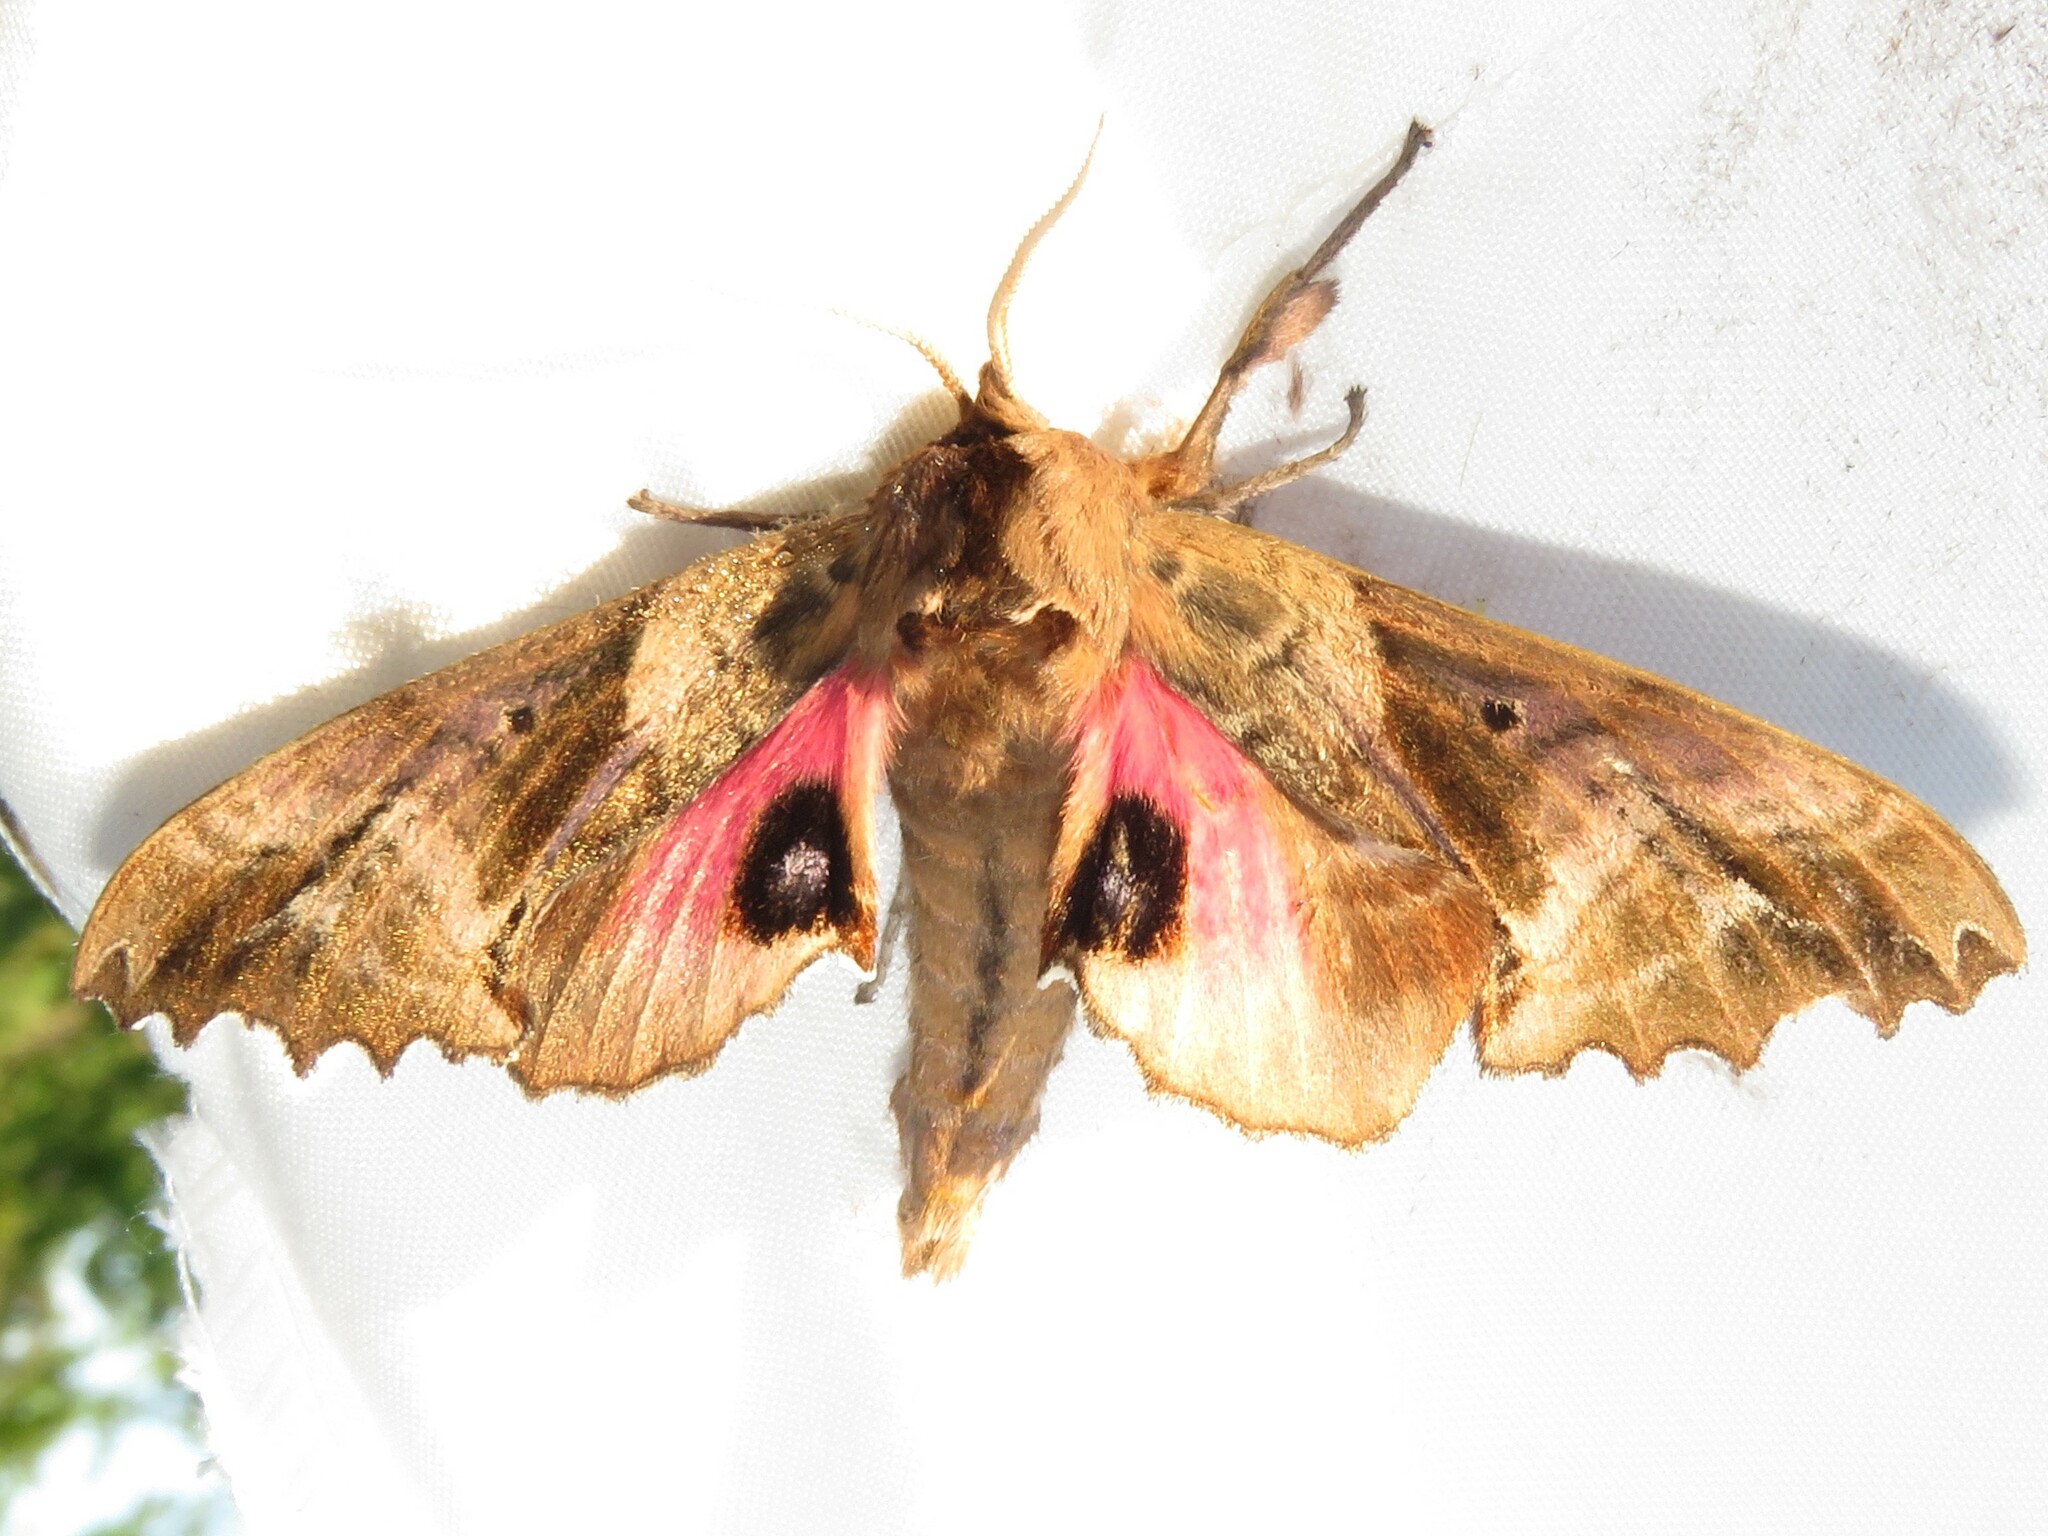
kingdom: Animalia
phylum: Arthropoda
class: Insecta
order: Lepidoptera
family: Sphingidae
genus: Paonias
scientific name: Paonias excaecata
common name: Blind-eyed sphinx
